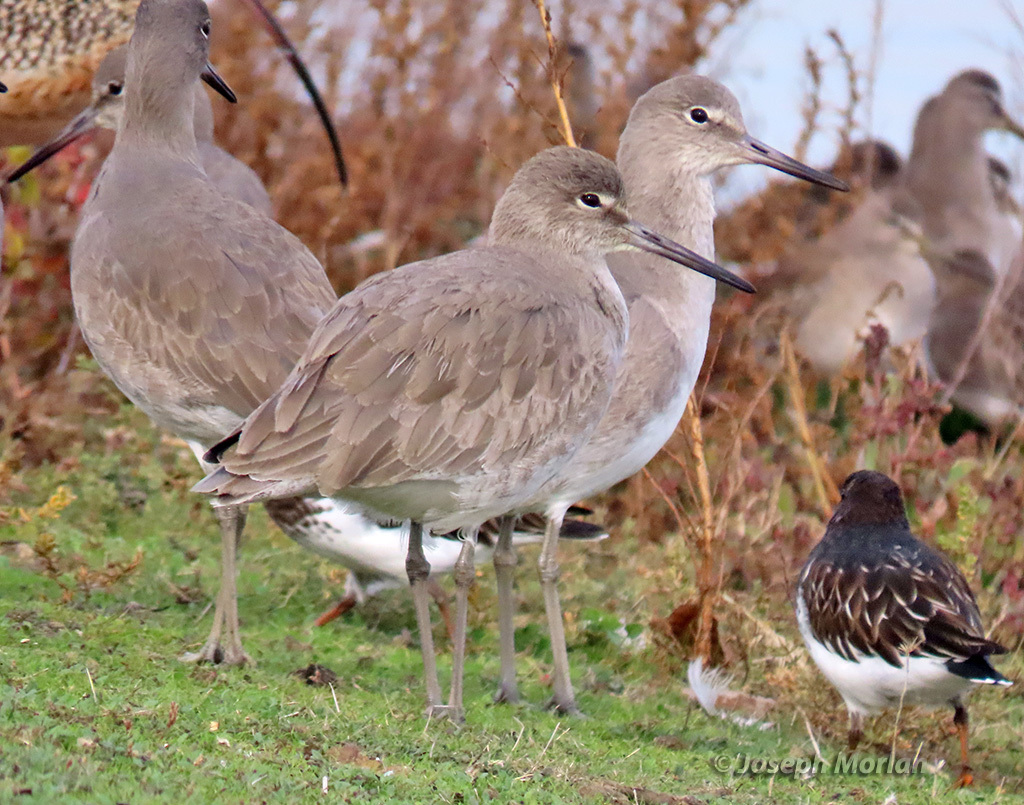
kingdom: Animalia
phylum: Chordata
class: Aves
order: Charadriiformes
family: Scolopacidae
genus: Tringa
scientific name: Tringa semipalmata
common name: Willet
